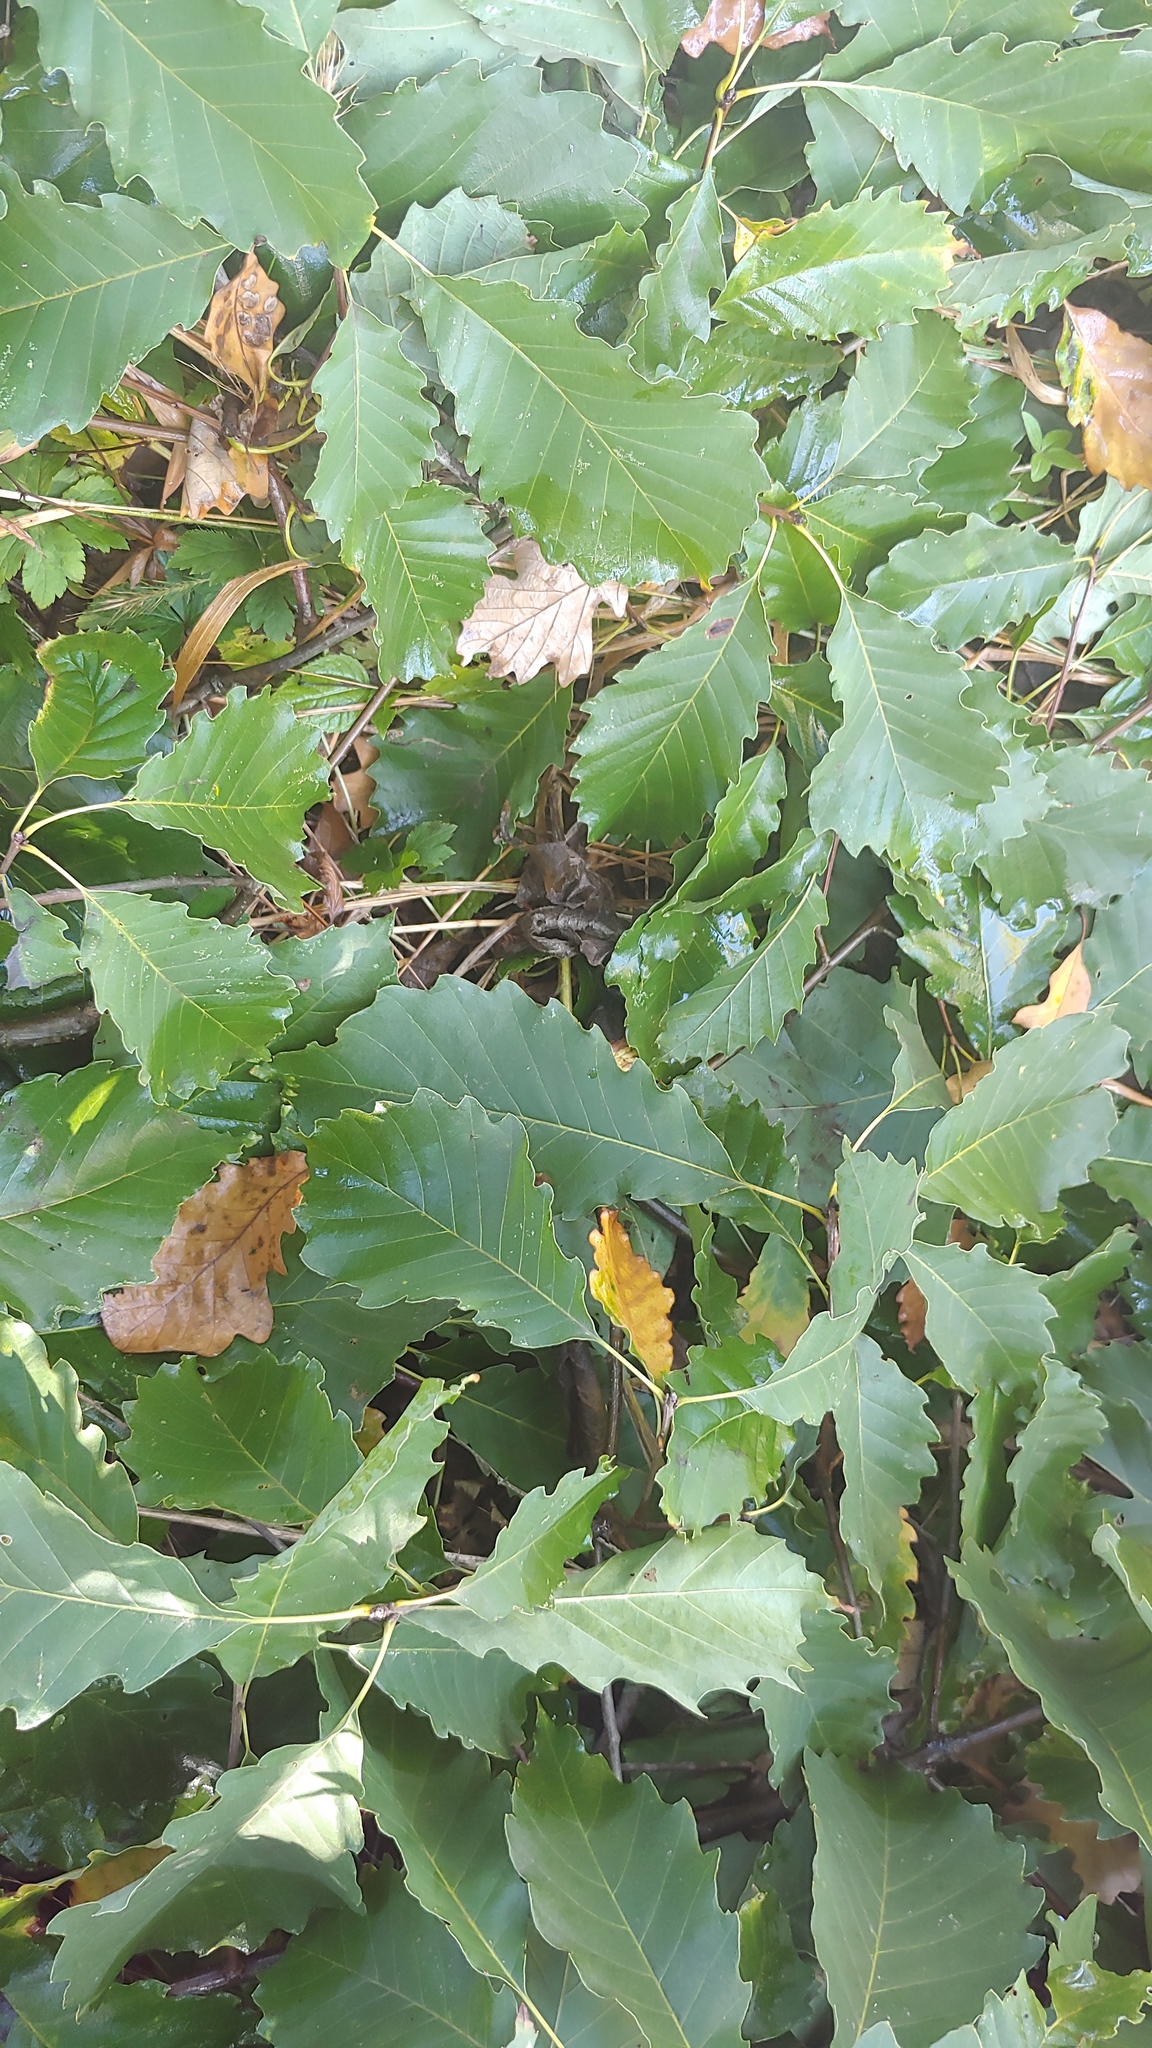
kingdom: Plantae
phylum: Tracheophyta
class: Magnoliopsida
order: Fagales
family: Fagaceae
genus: Quercus
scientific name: Quercus muehlenbergii
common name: Chinkapin oak
